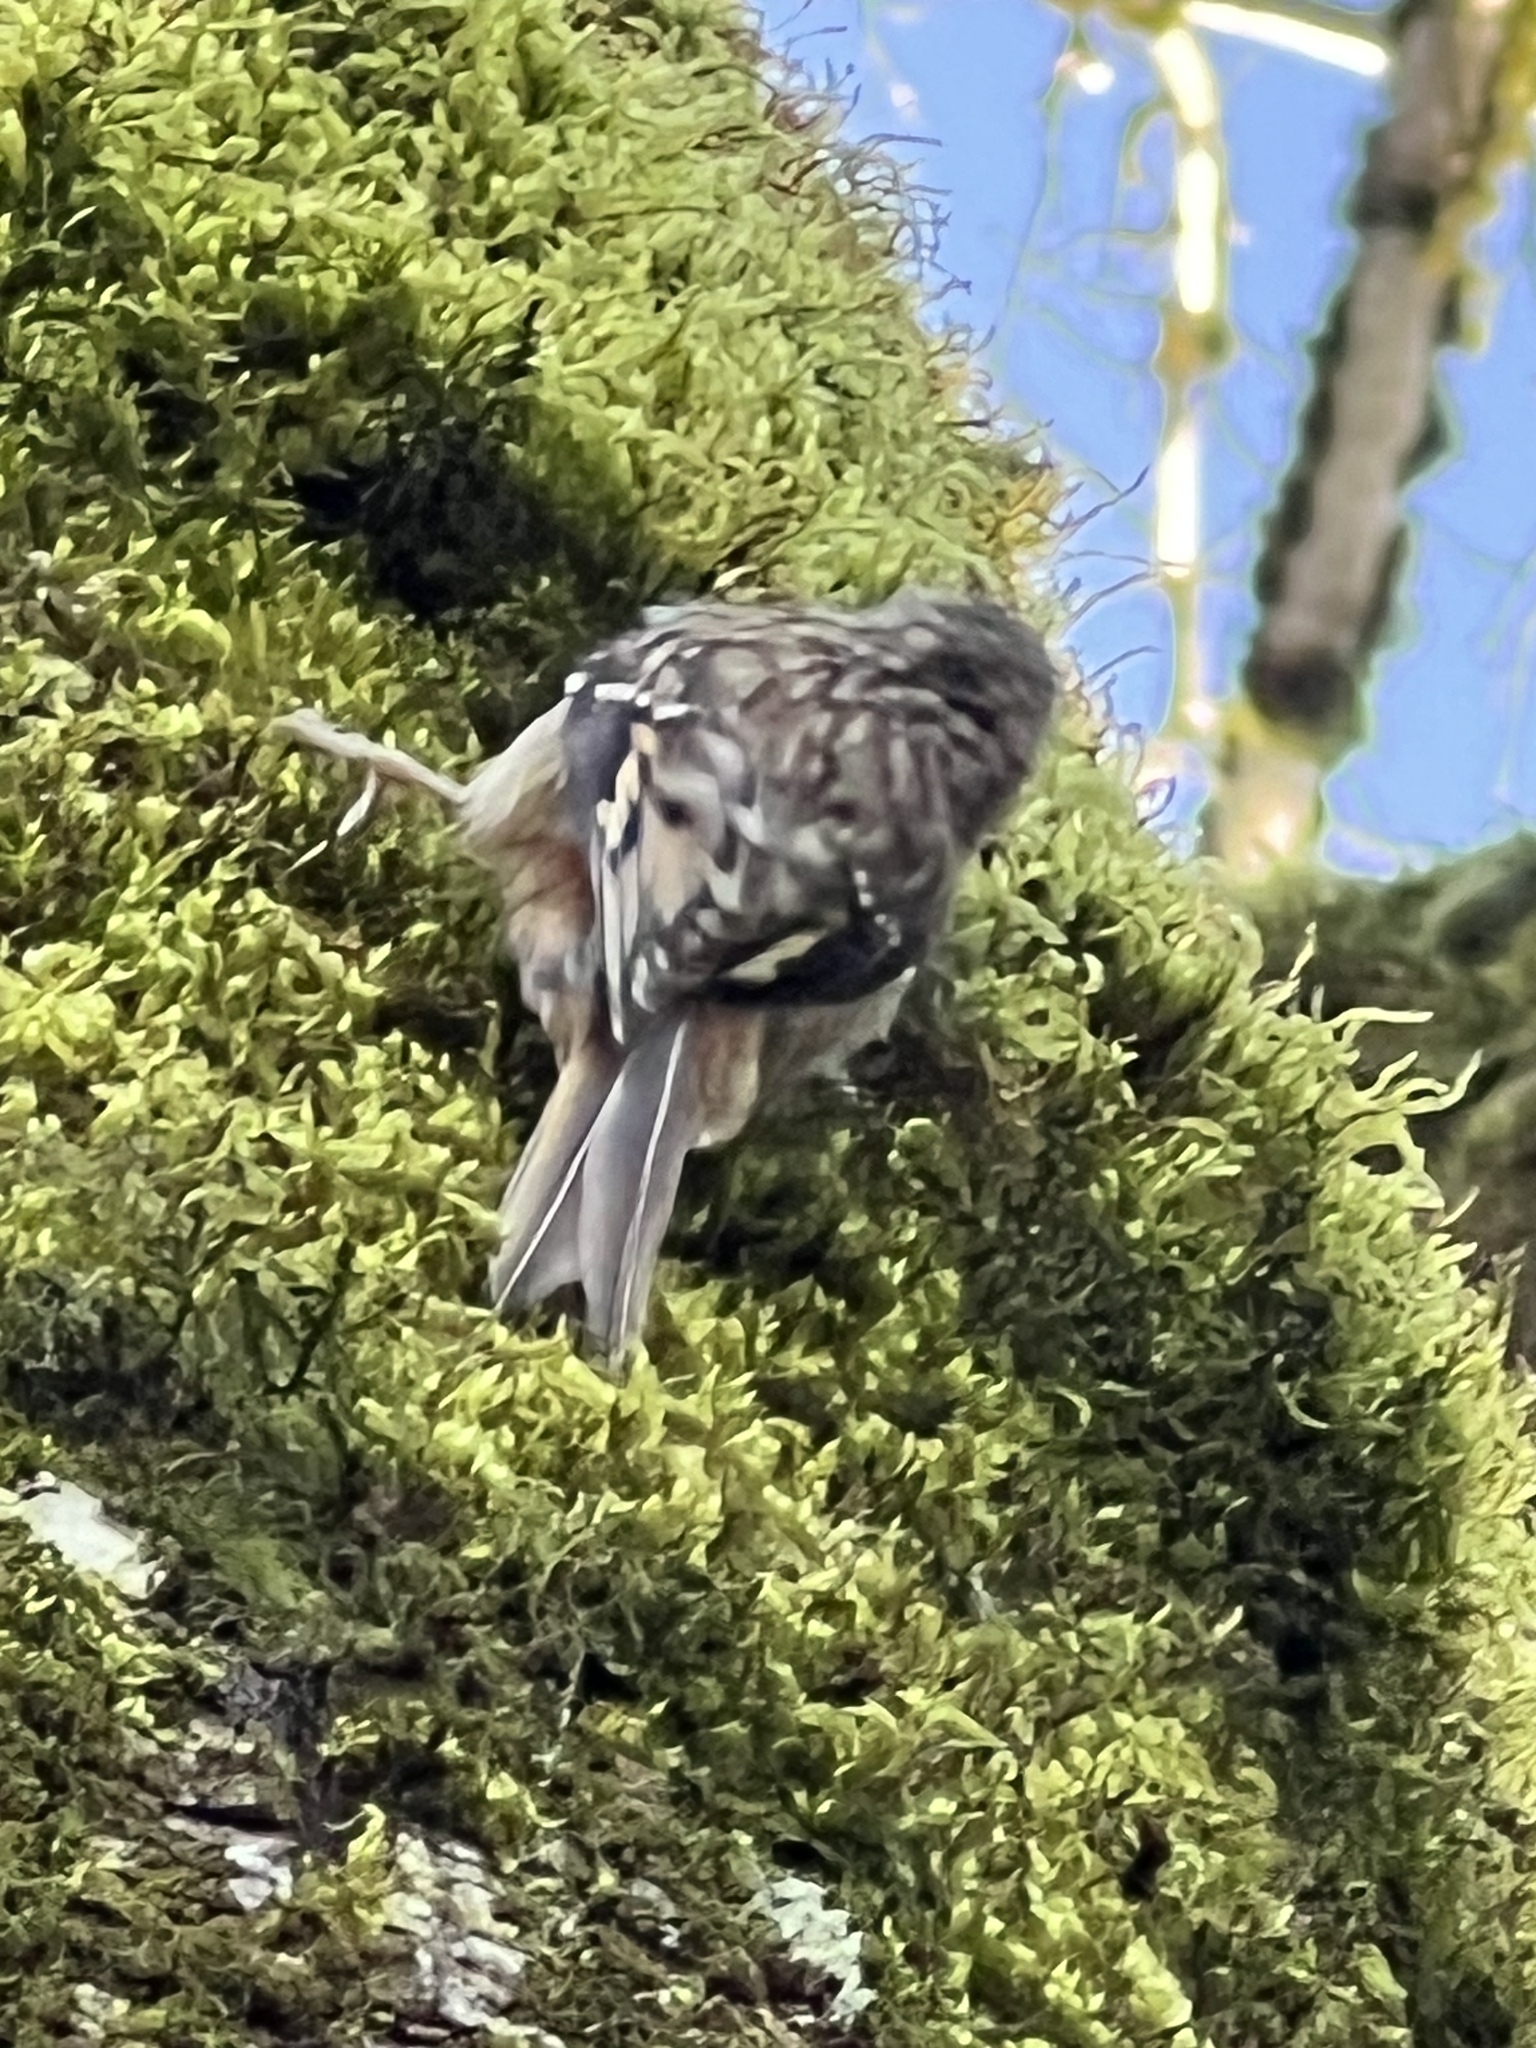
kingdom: Animalia
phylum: Chordata
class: Aves
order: Passeriformes
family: Certhiidae
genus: Certhia
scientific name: Certhia americana
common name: Brown creeper
